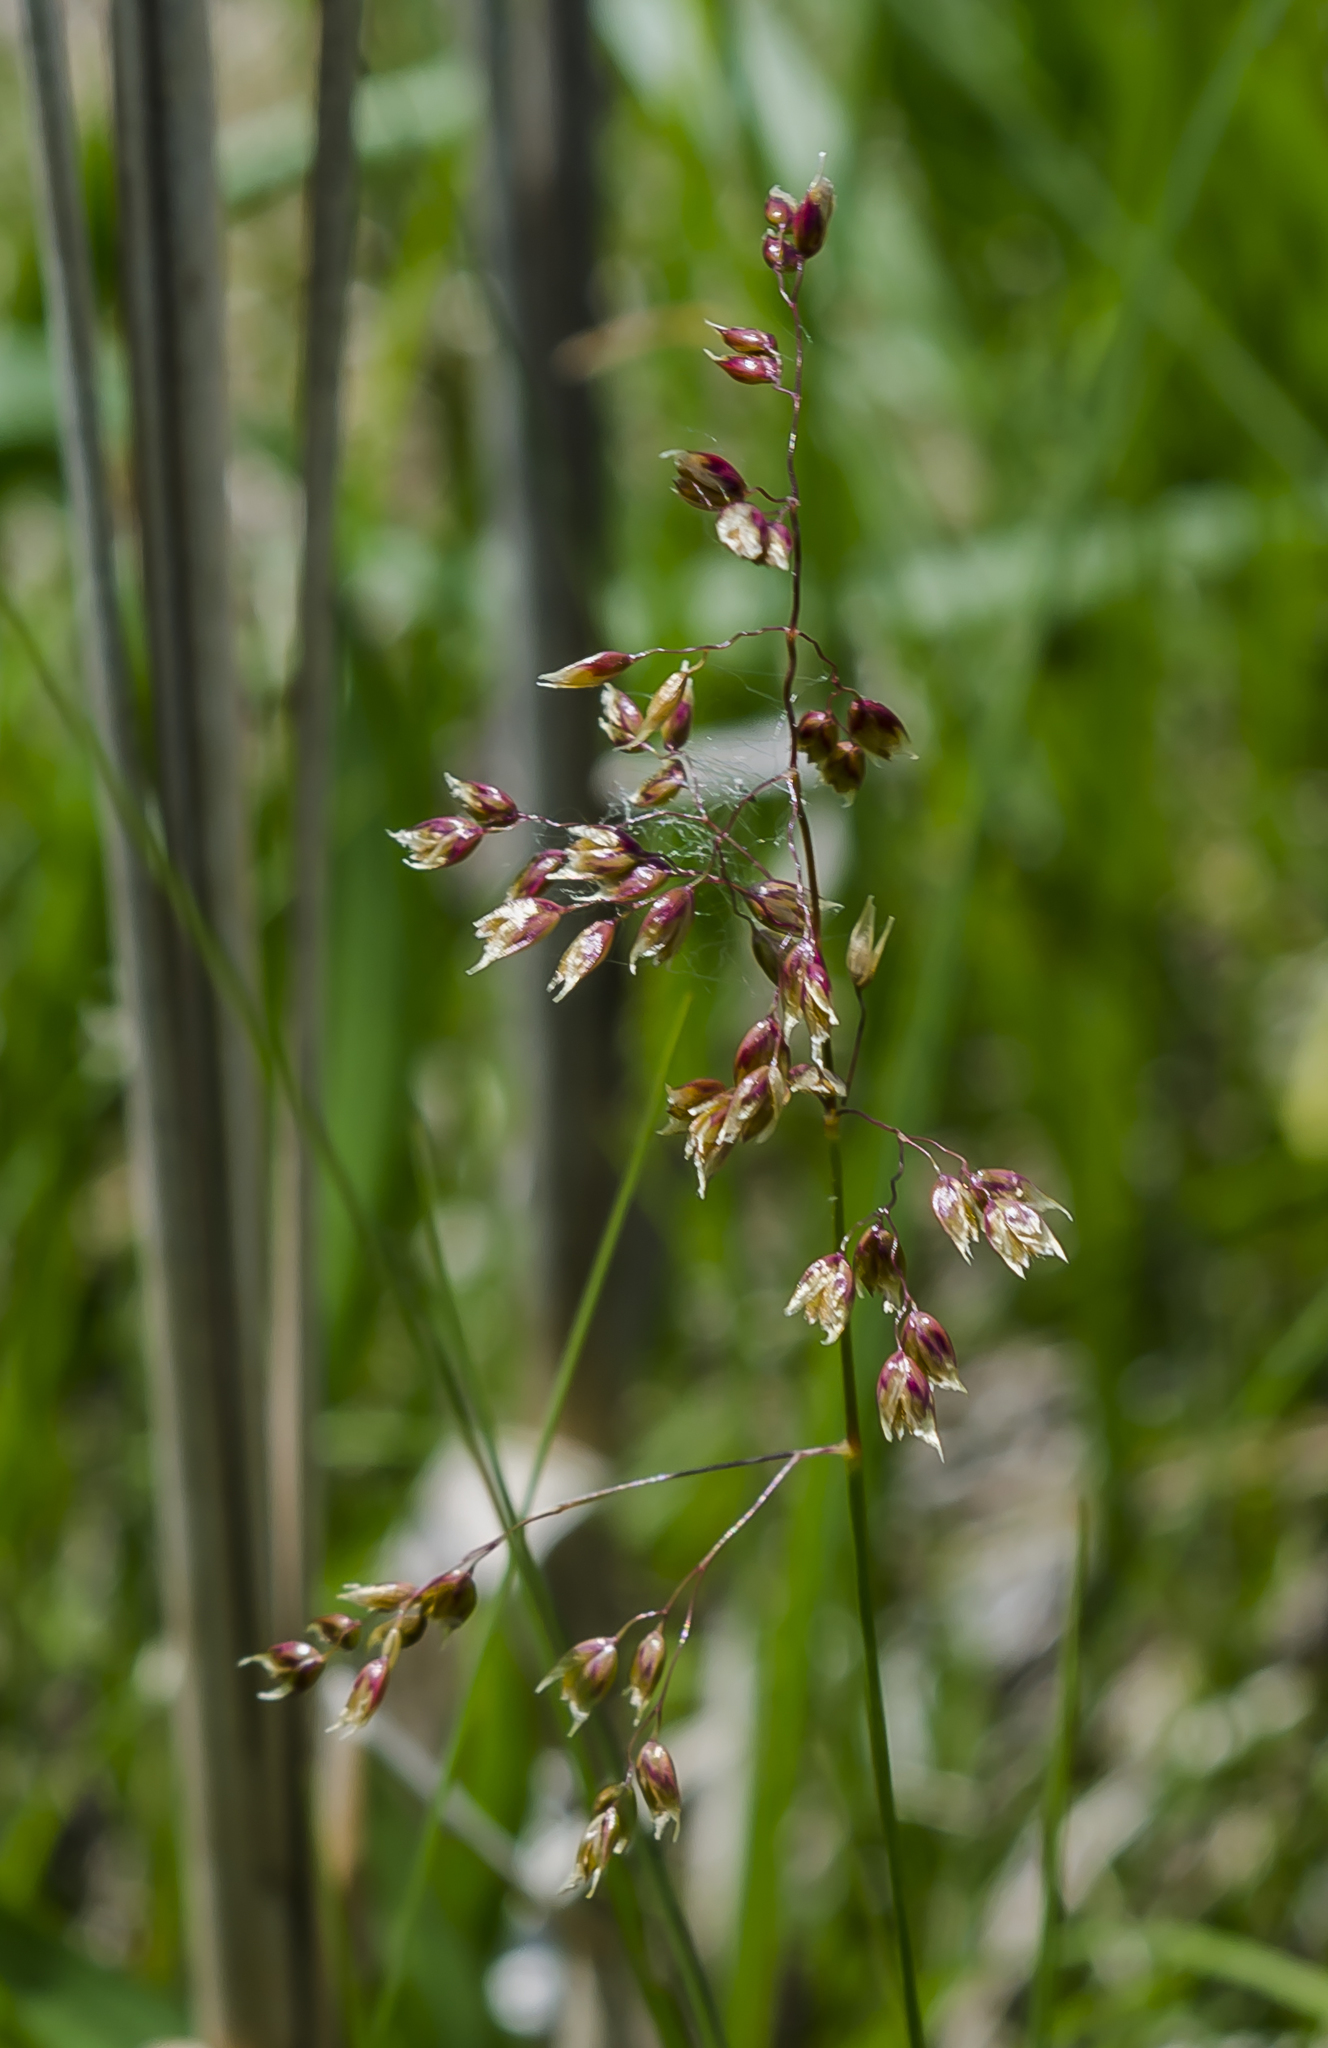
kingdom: Plantae
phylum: Tracheophyta
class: Liliopsida
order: Poales
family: Poaceae
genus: Anthoxanthum
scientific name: Anthoxanthum nitens
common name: Holy grass
